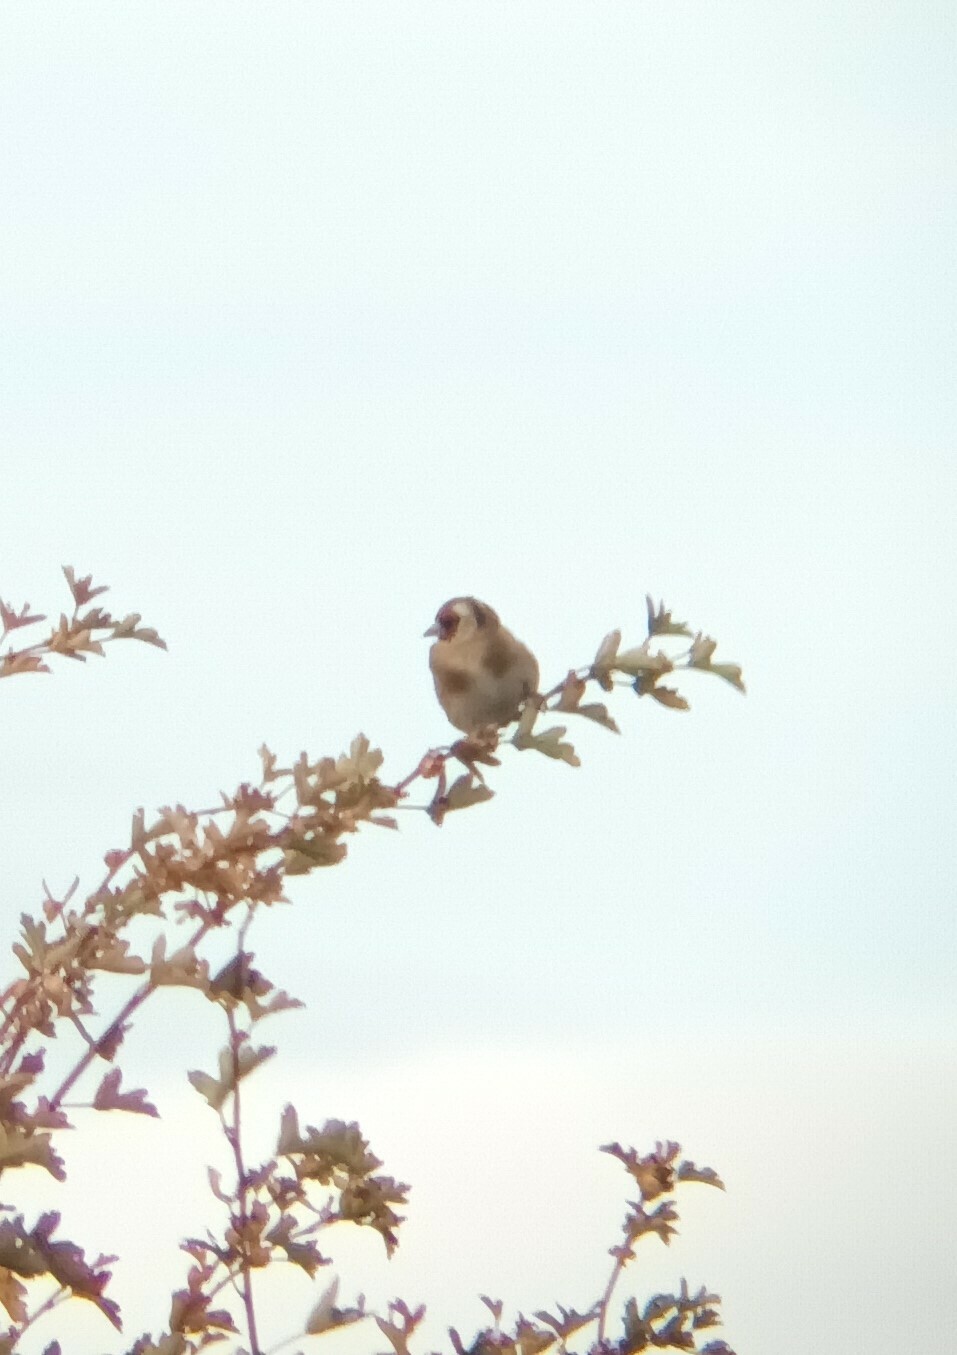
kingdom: Animalia
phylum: Chordata
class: Aves
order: Passeriformes
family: Fringillidae
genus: Carduelis
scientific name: Carduelis carduelis
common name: European goldfinch
